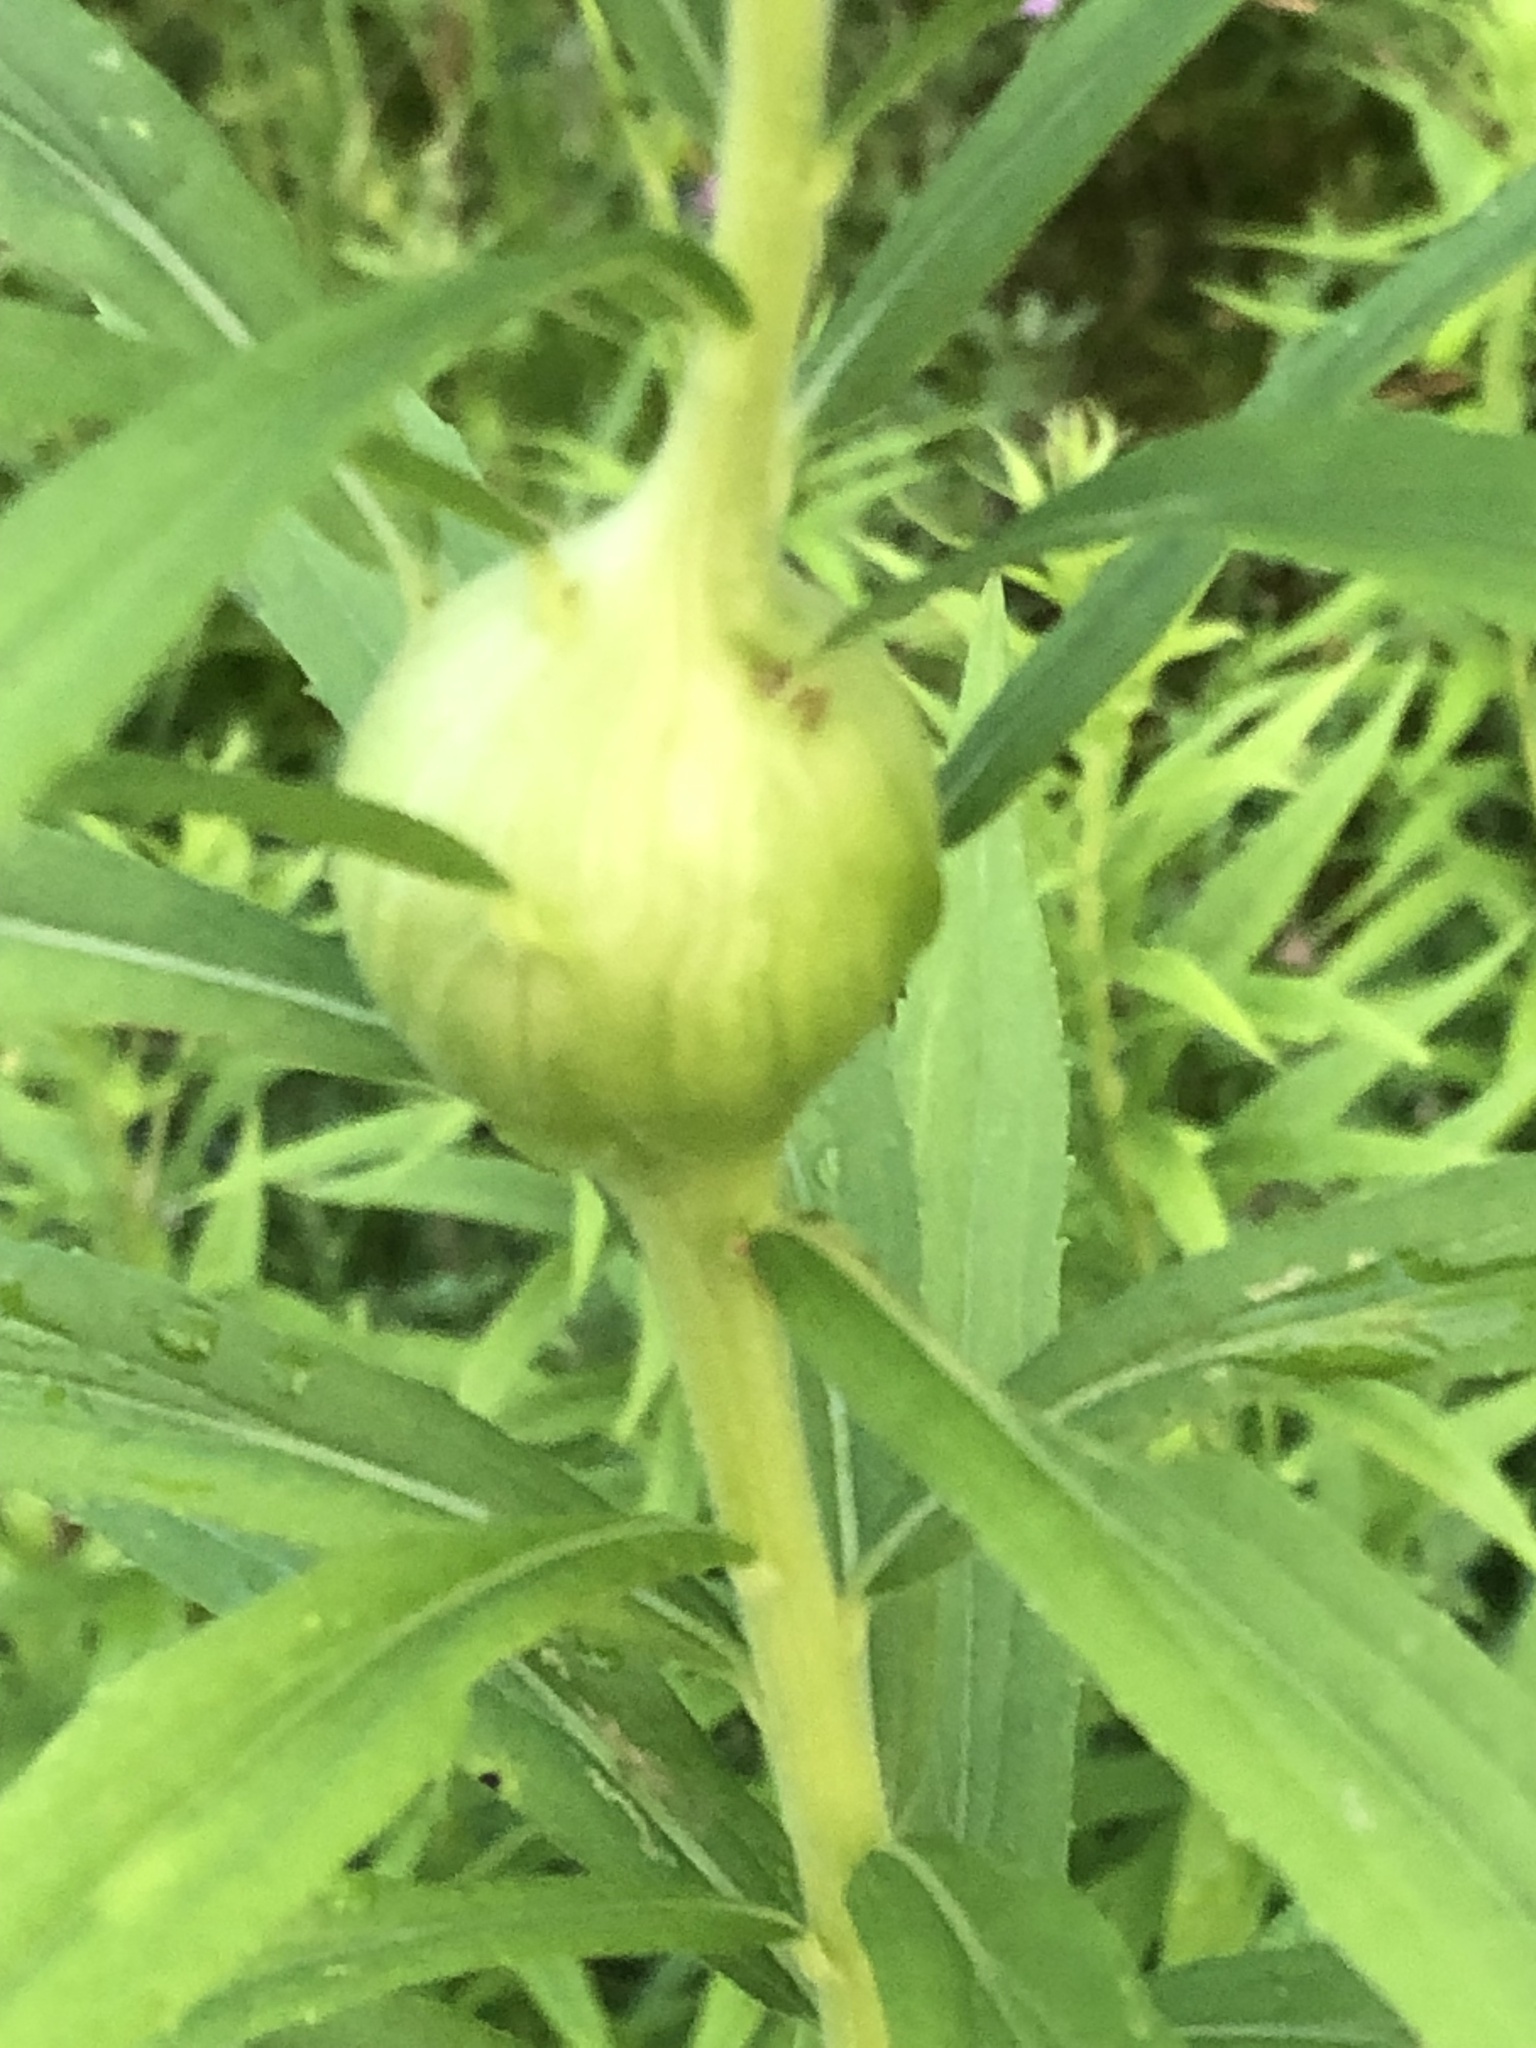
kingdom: Animalia
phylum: Arthropoda
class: Insecta
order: Diptera
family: Tephritidae
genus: Eurosta
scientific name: Eurosta solidaginis
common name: Goldenrod gall fly
